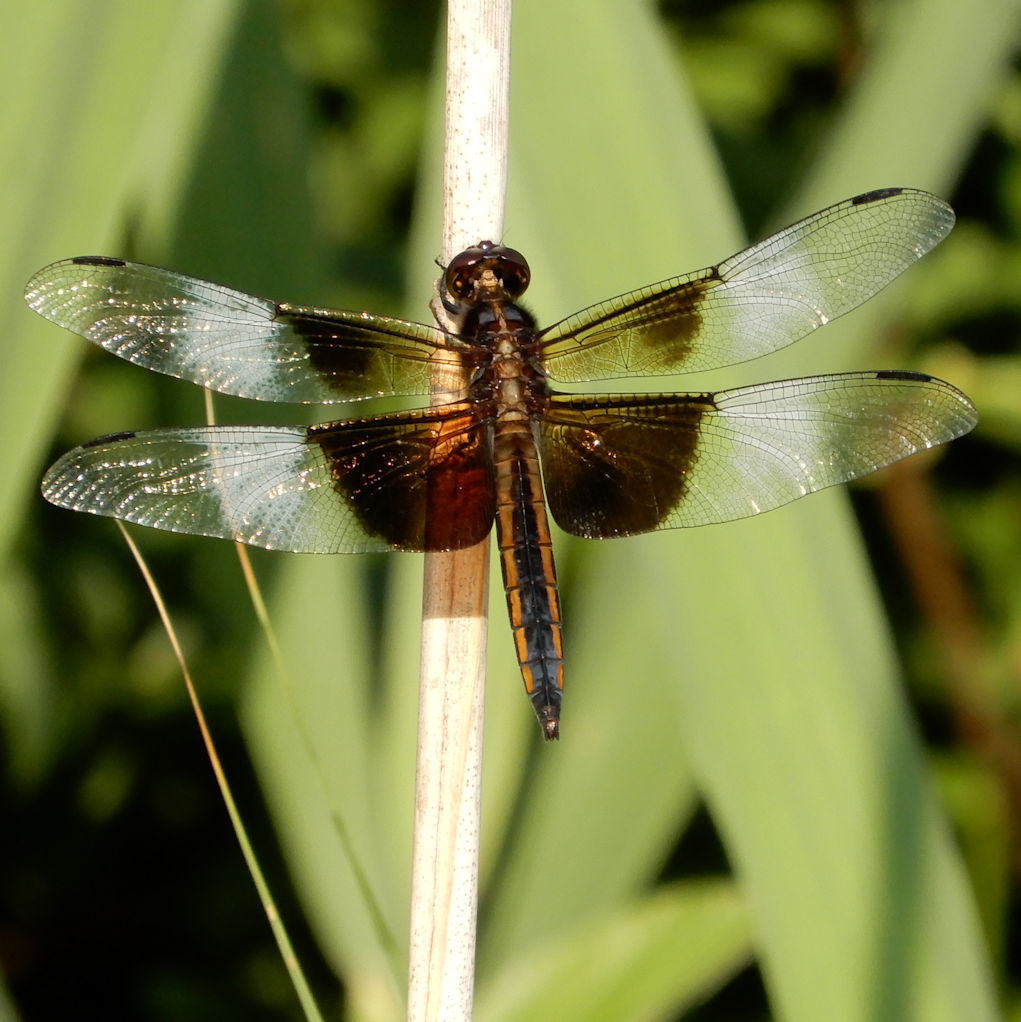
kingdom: Animalia
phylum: Arthropoda
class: Insecta
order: Odonata
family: Libellulidae
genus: Libellula
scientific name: Libellula luctuosa
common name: Widow skimmer
